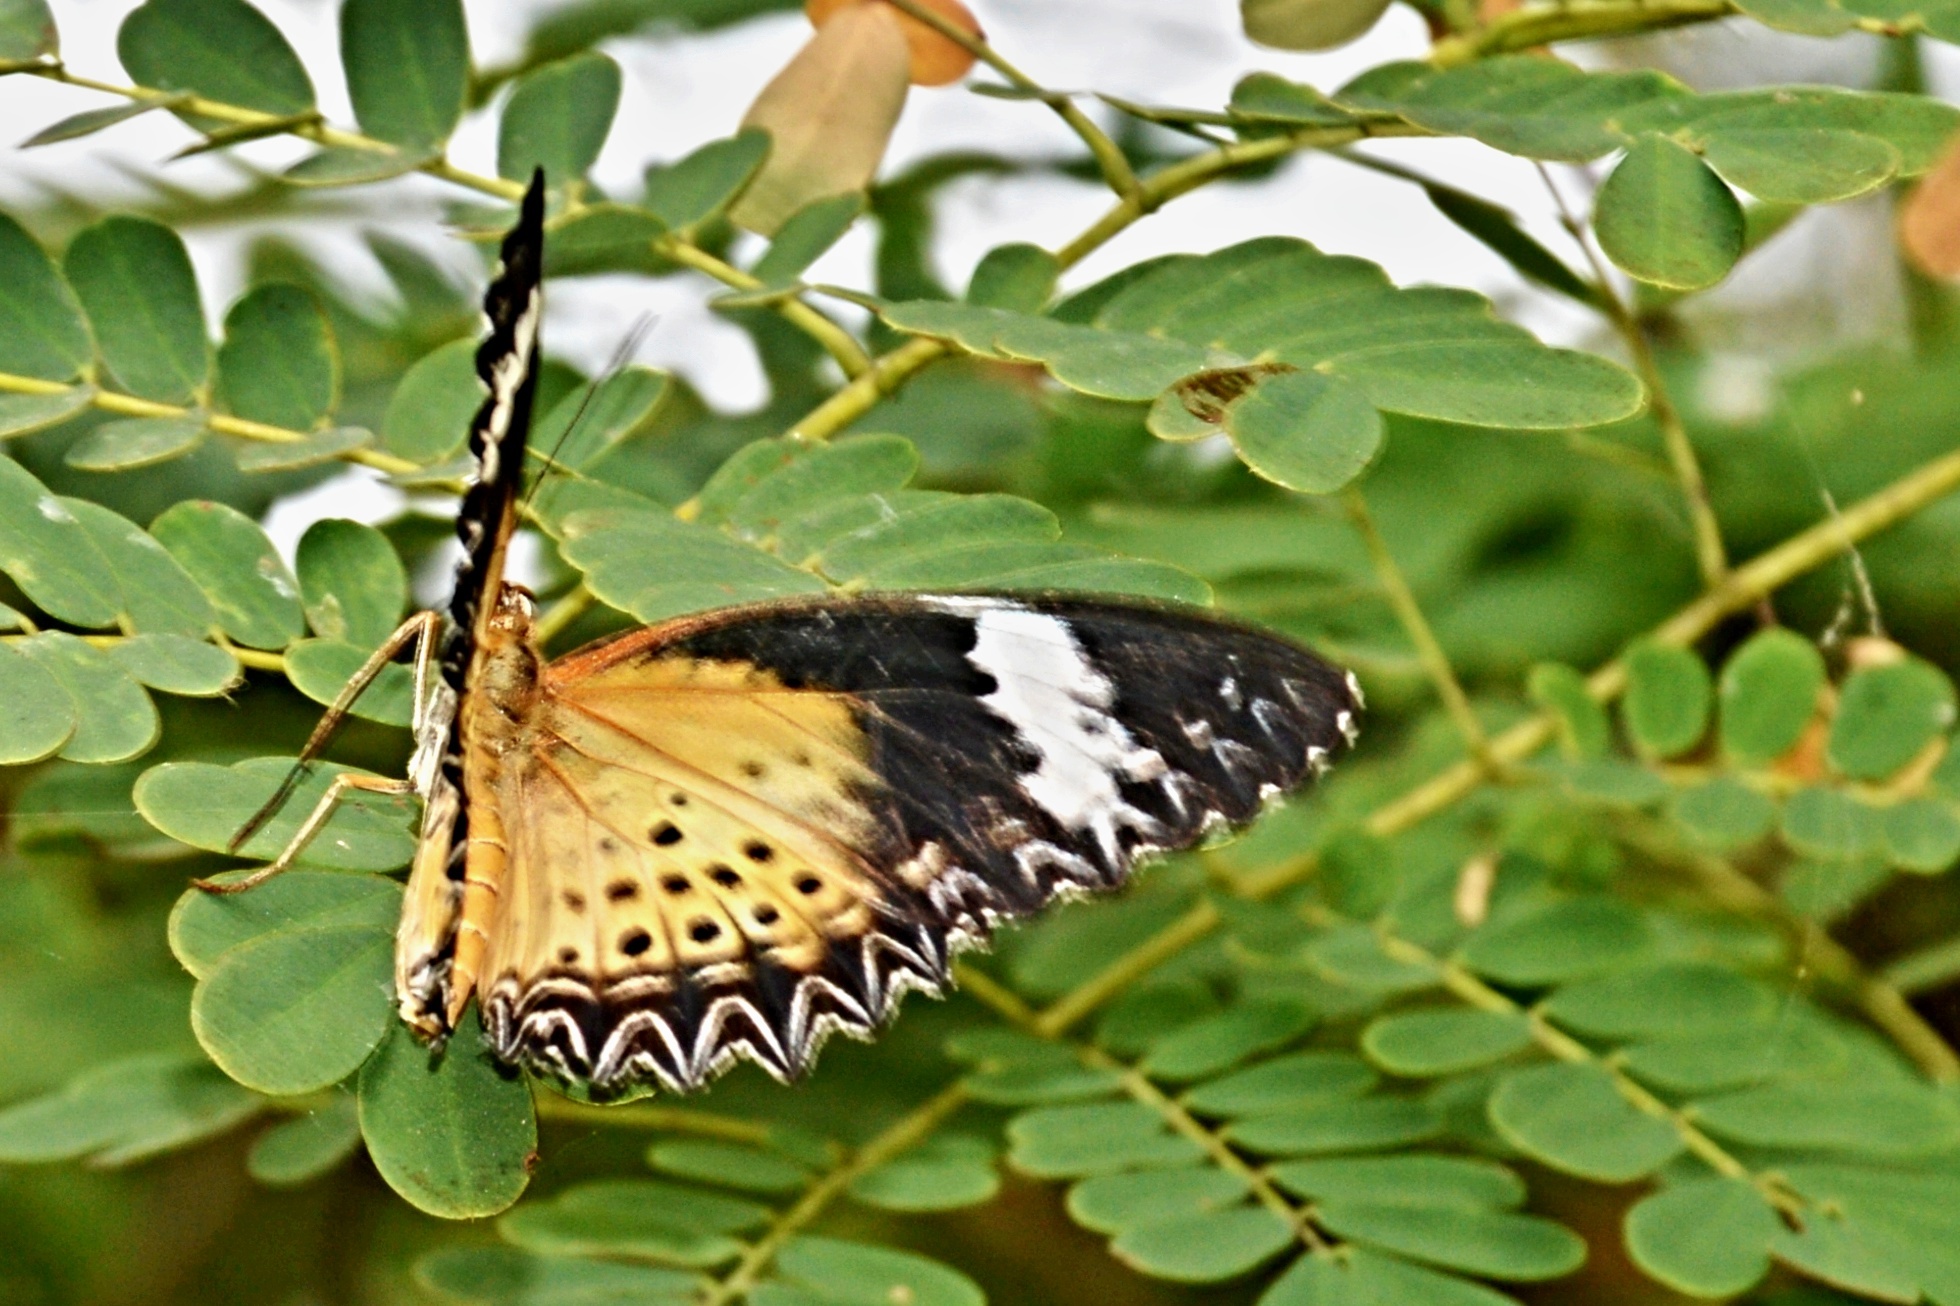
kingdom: Animalia
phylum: Arthropoda
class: Insecta
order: Lepidoptera
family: Nymphalidae
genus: Cethosia
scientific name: Cethosia cyane
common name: Leopard lacewing butterfly
